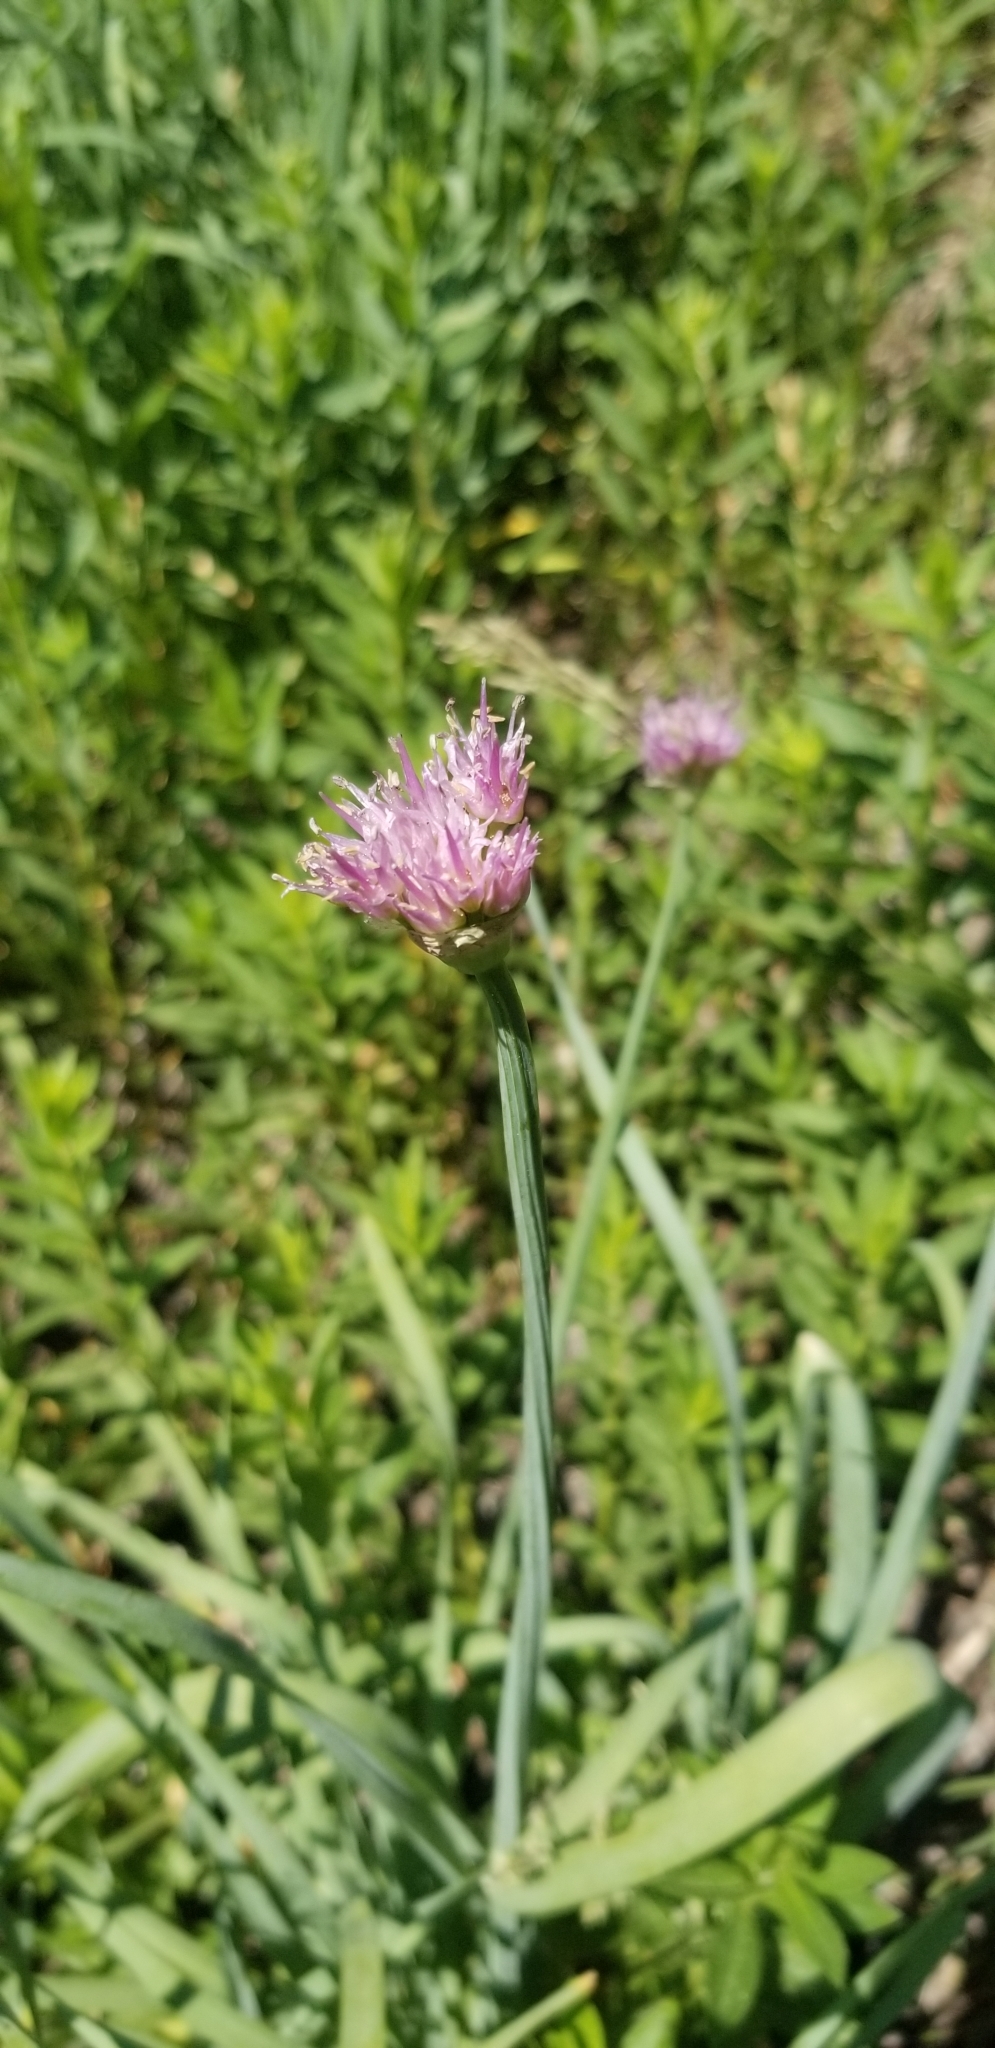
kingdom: Plantae
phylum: Tracheophyta
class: Liliopsida
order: Asparagales
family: Amaryllidaceae
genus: Allium
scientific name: Allium validum
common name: Pacific mountain onion
